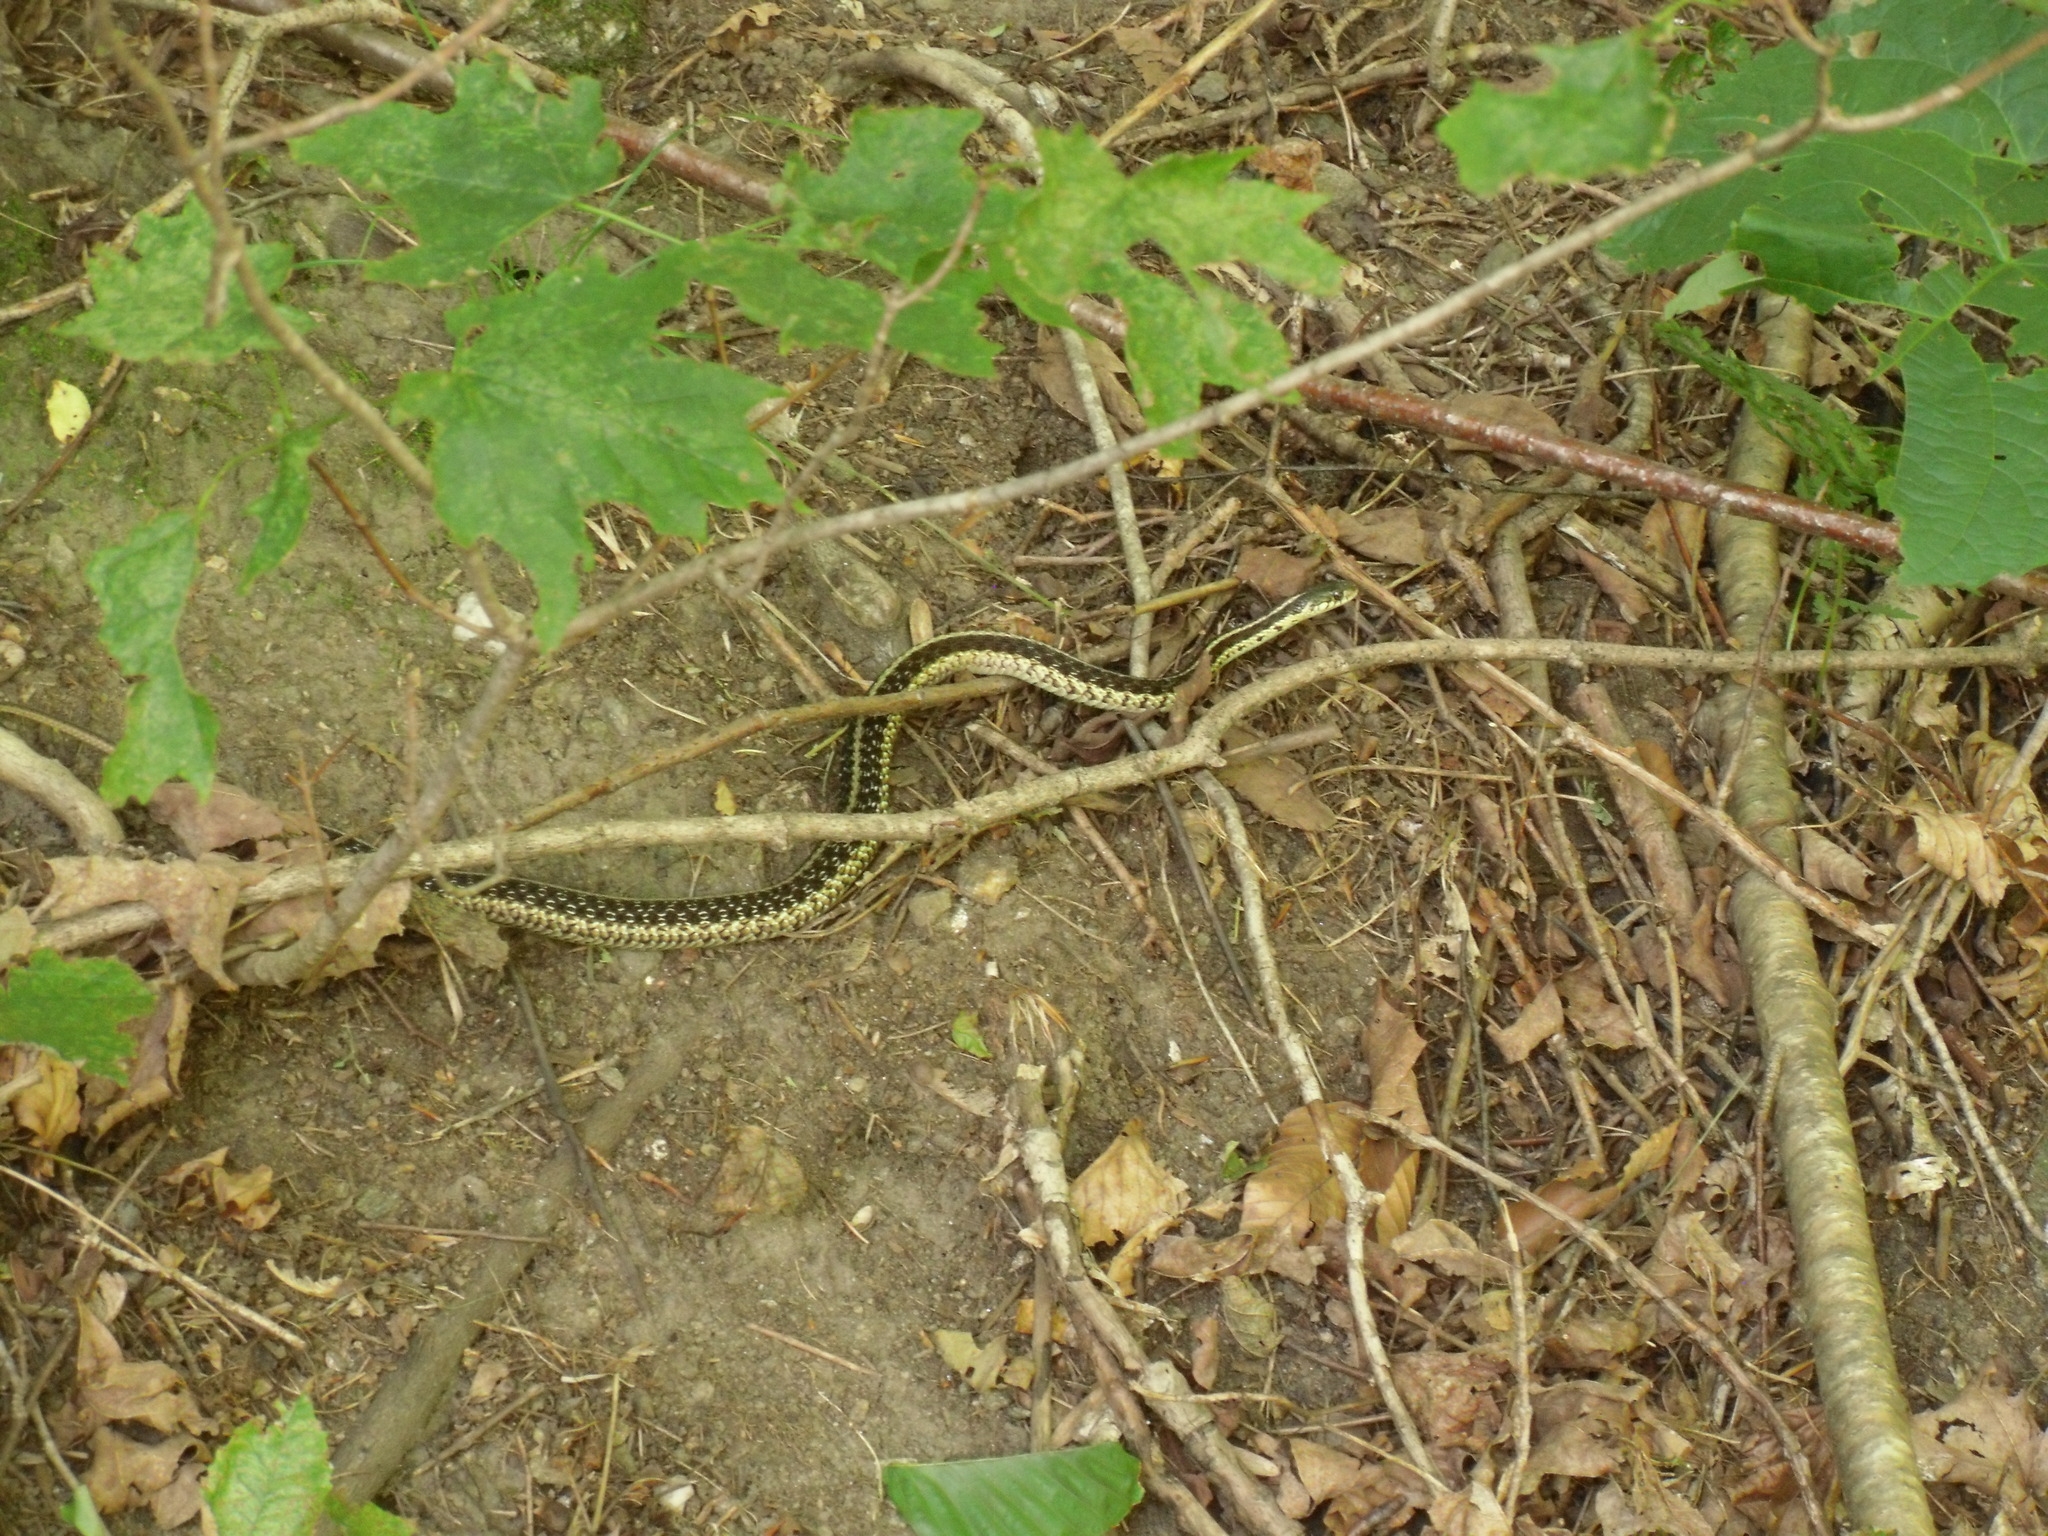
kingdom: Animalia
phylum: Chordata
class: Squamata
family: Colubridae
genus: Thamnophis
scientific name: Thamnophis sirtalis
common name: Common garter snake
